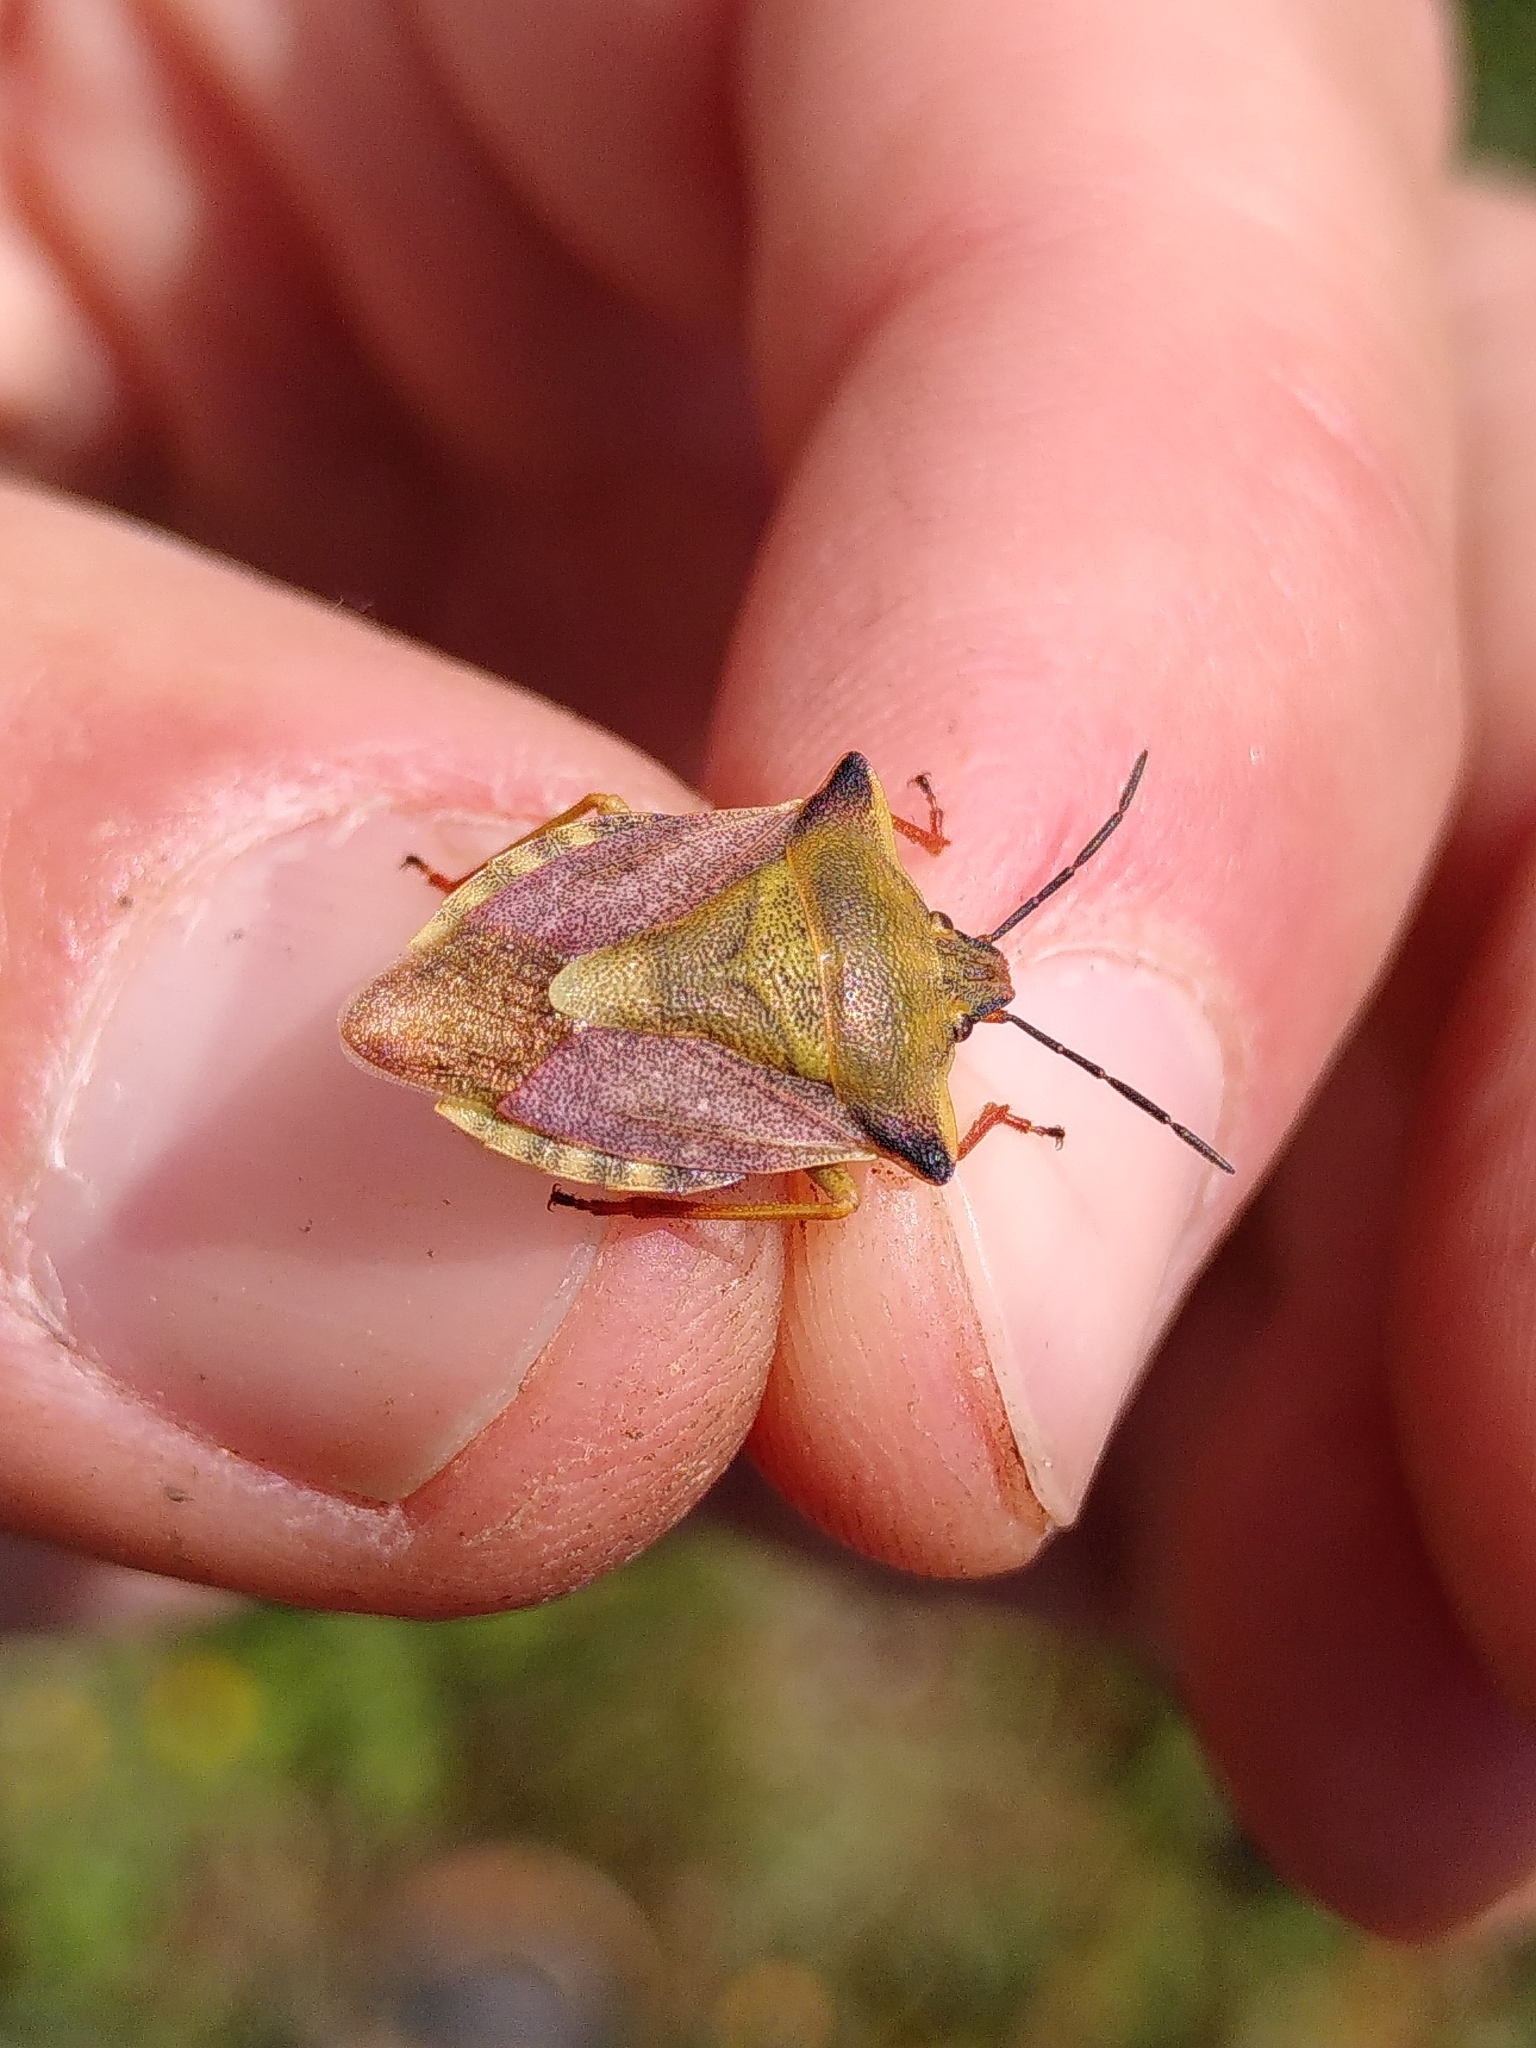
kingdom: Animalia
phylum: Arthropoda
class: Insecta
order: Hemiptera
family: Pentatomidae
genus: Carpocoris
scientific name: Carpocoris mediterraneus
